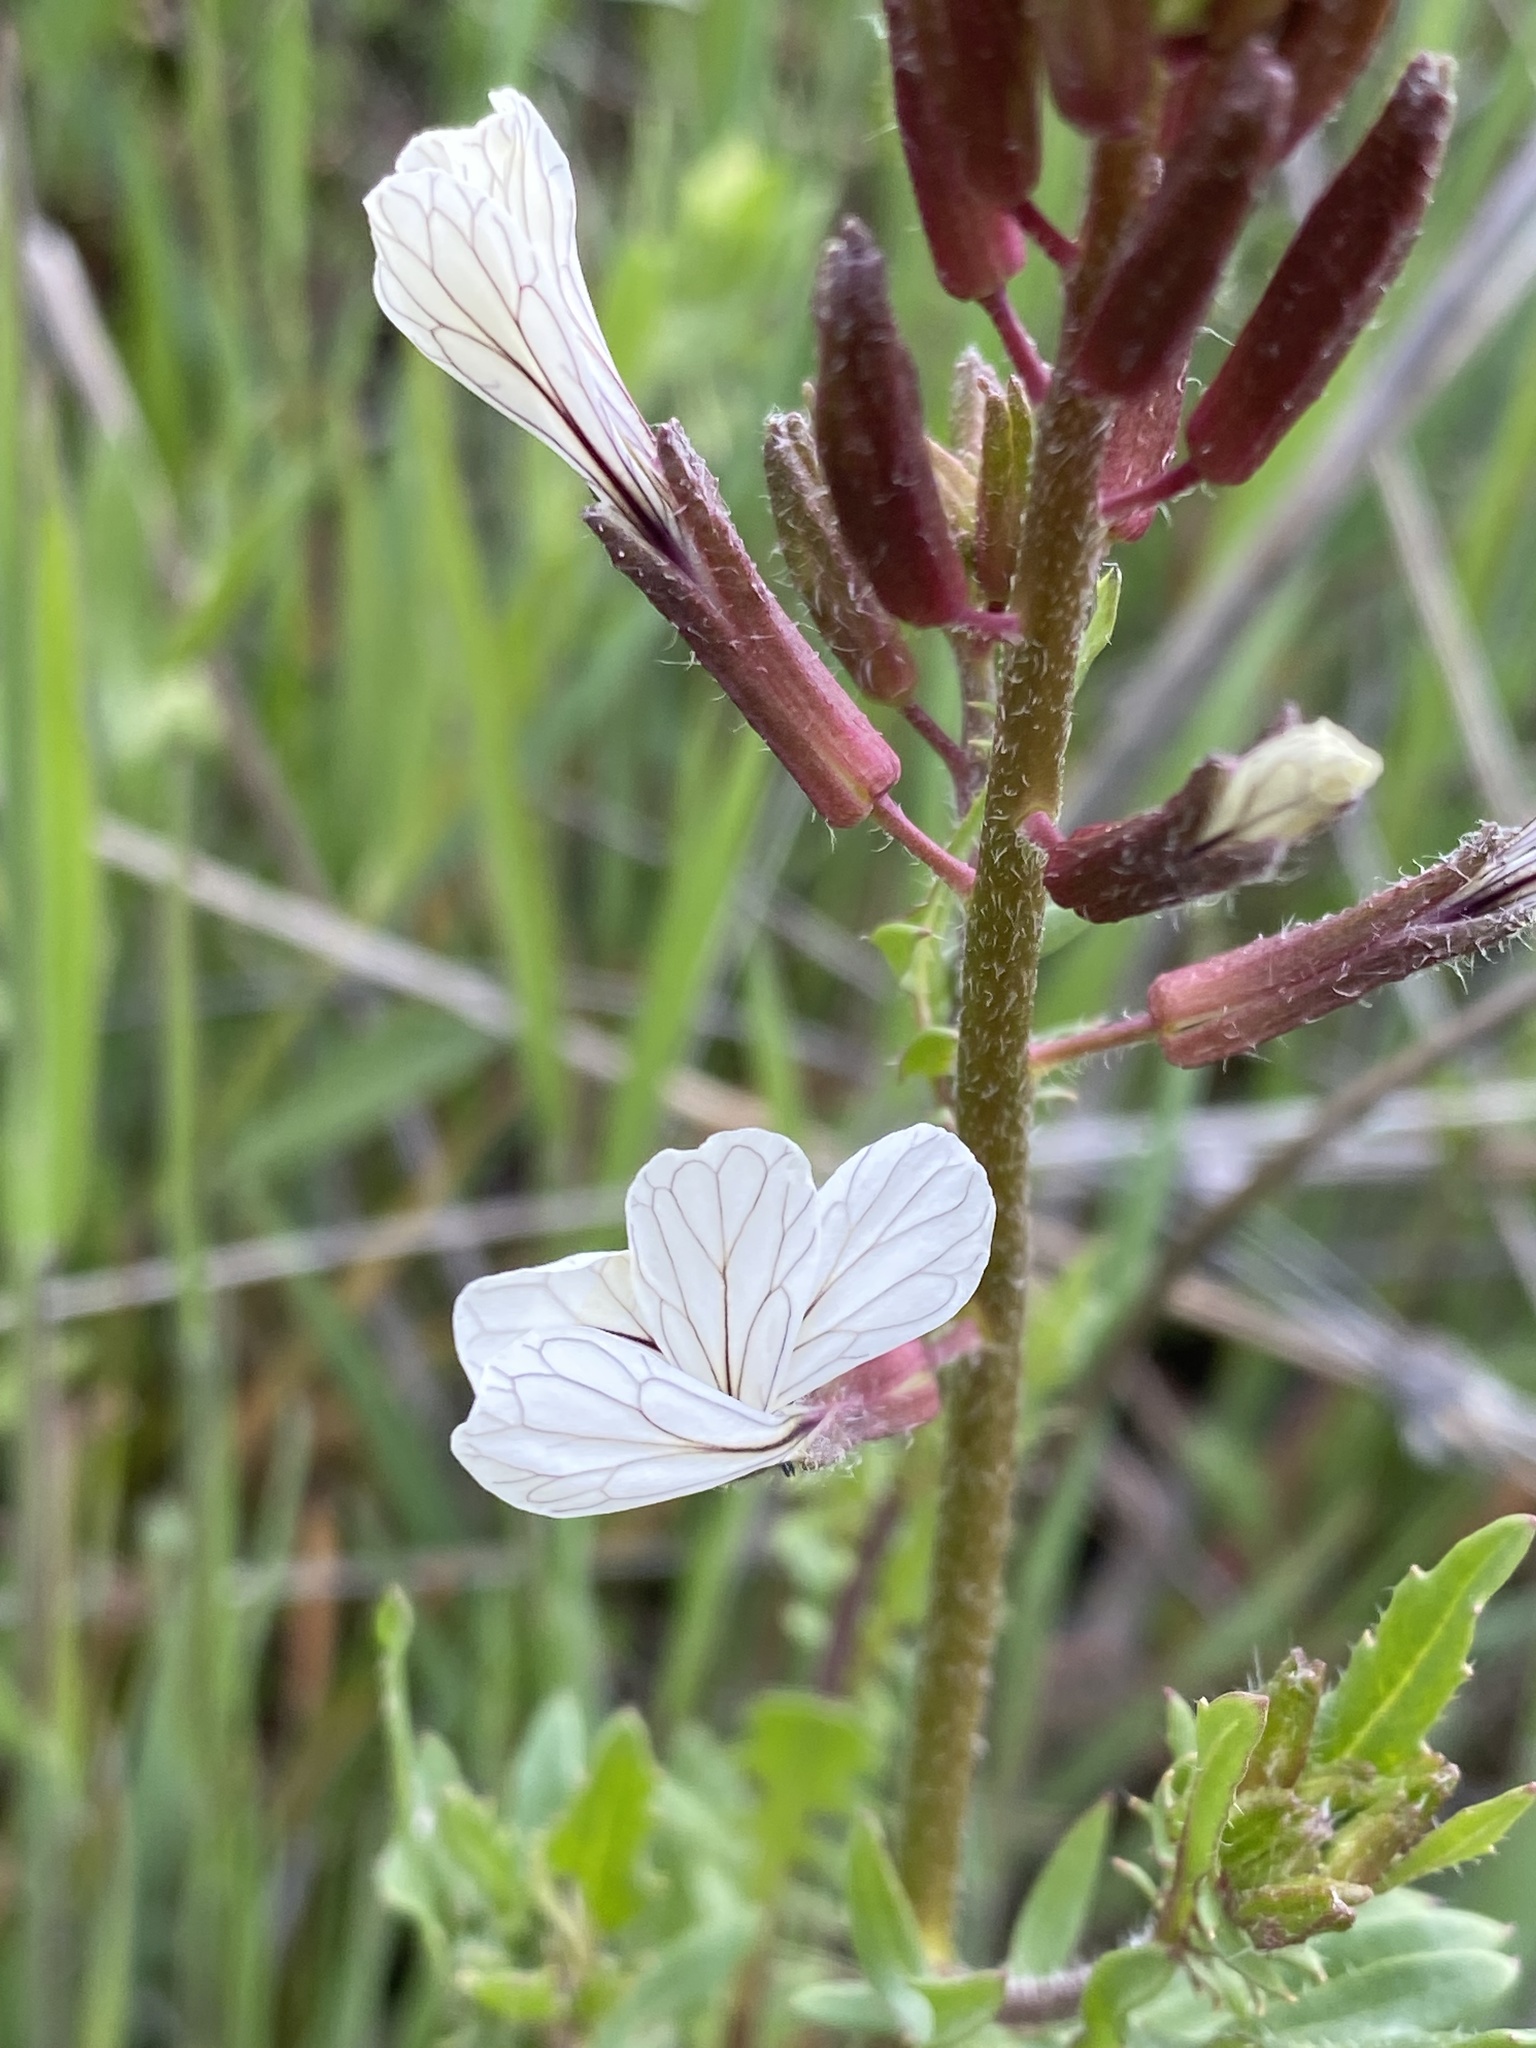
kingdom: Plantae
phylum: Tracheophyta
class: Magnoliopsida
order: Brassicales
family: Brassicaceae
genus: Eruca
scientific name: Eruca vesicaria
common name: Garden rocket
